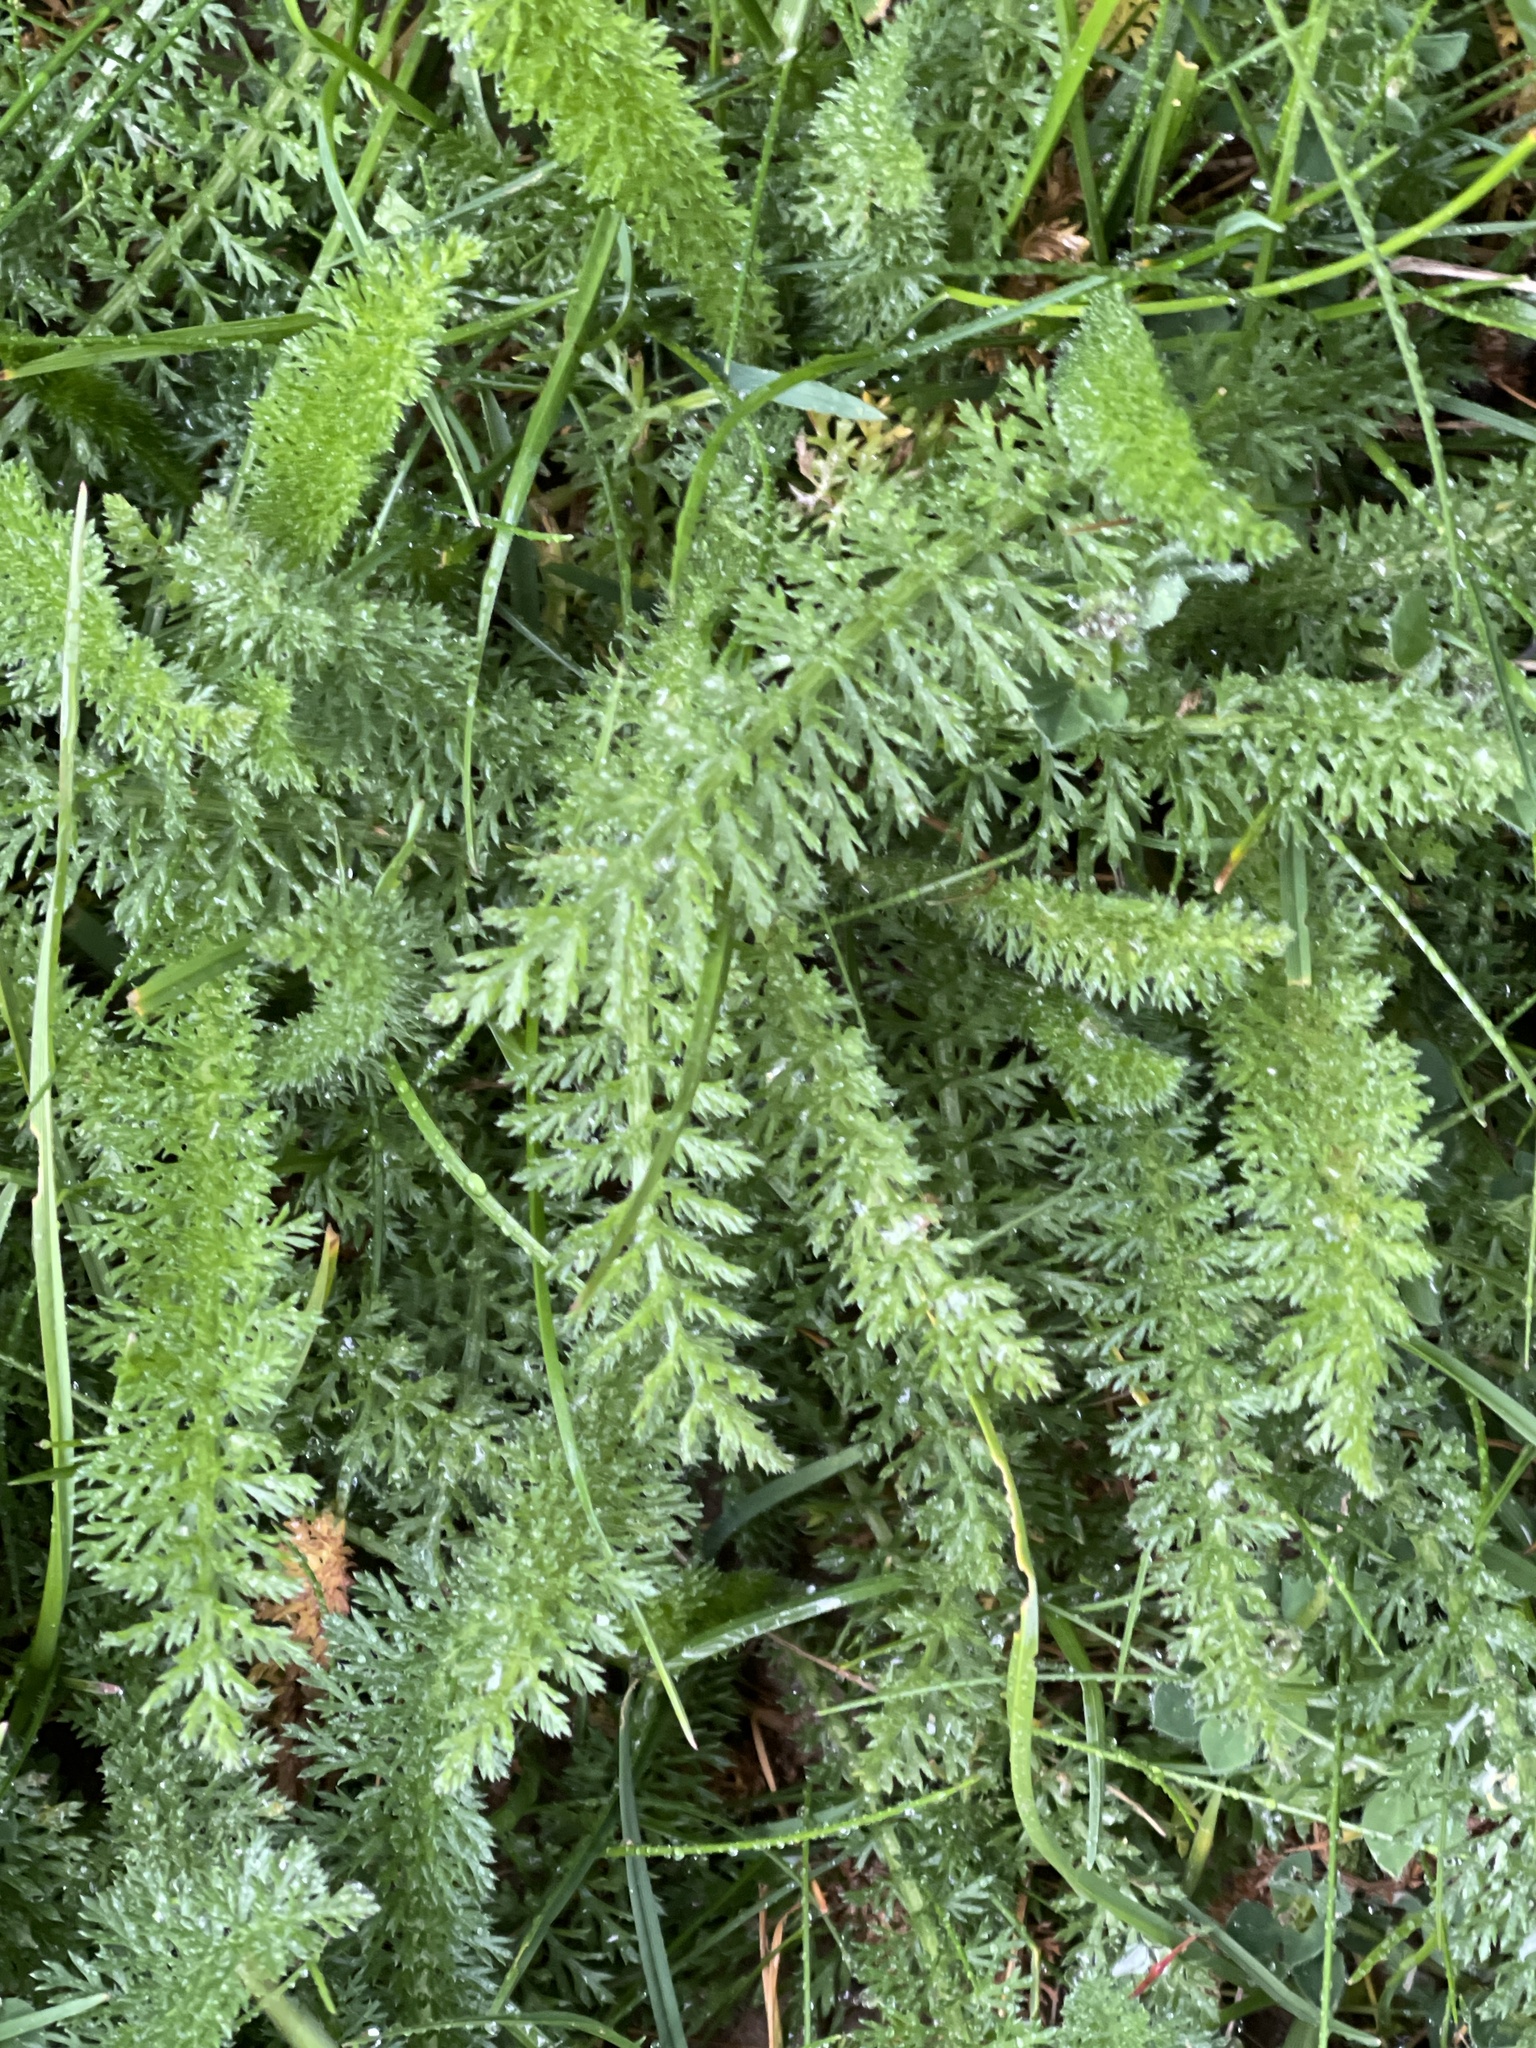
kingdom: Plantae
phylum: Tracheophyta
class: Magnoliopsida
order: Asterales
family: Asteraceae
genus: Achillea
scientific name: Achillea millefolium
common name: Yarrow
